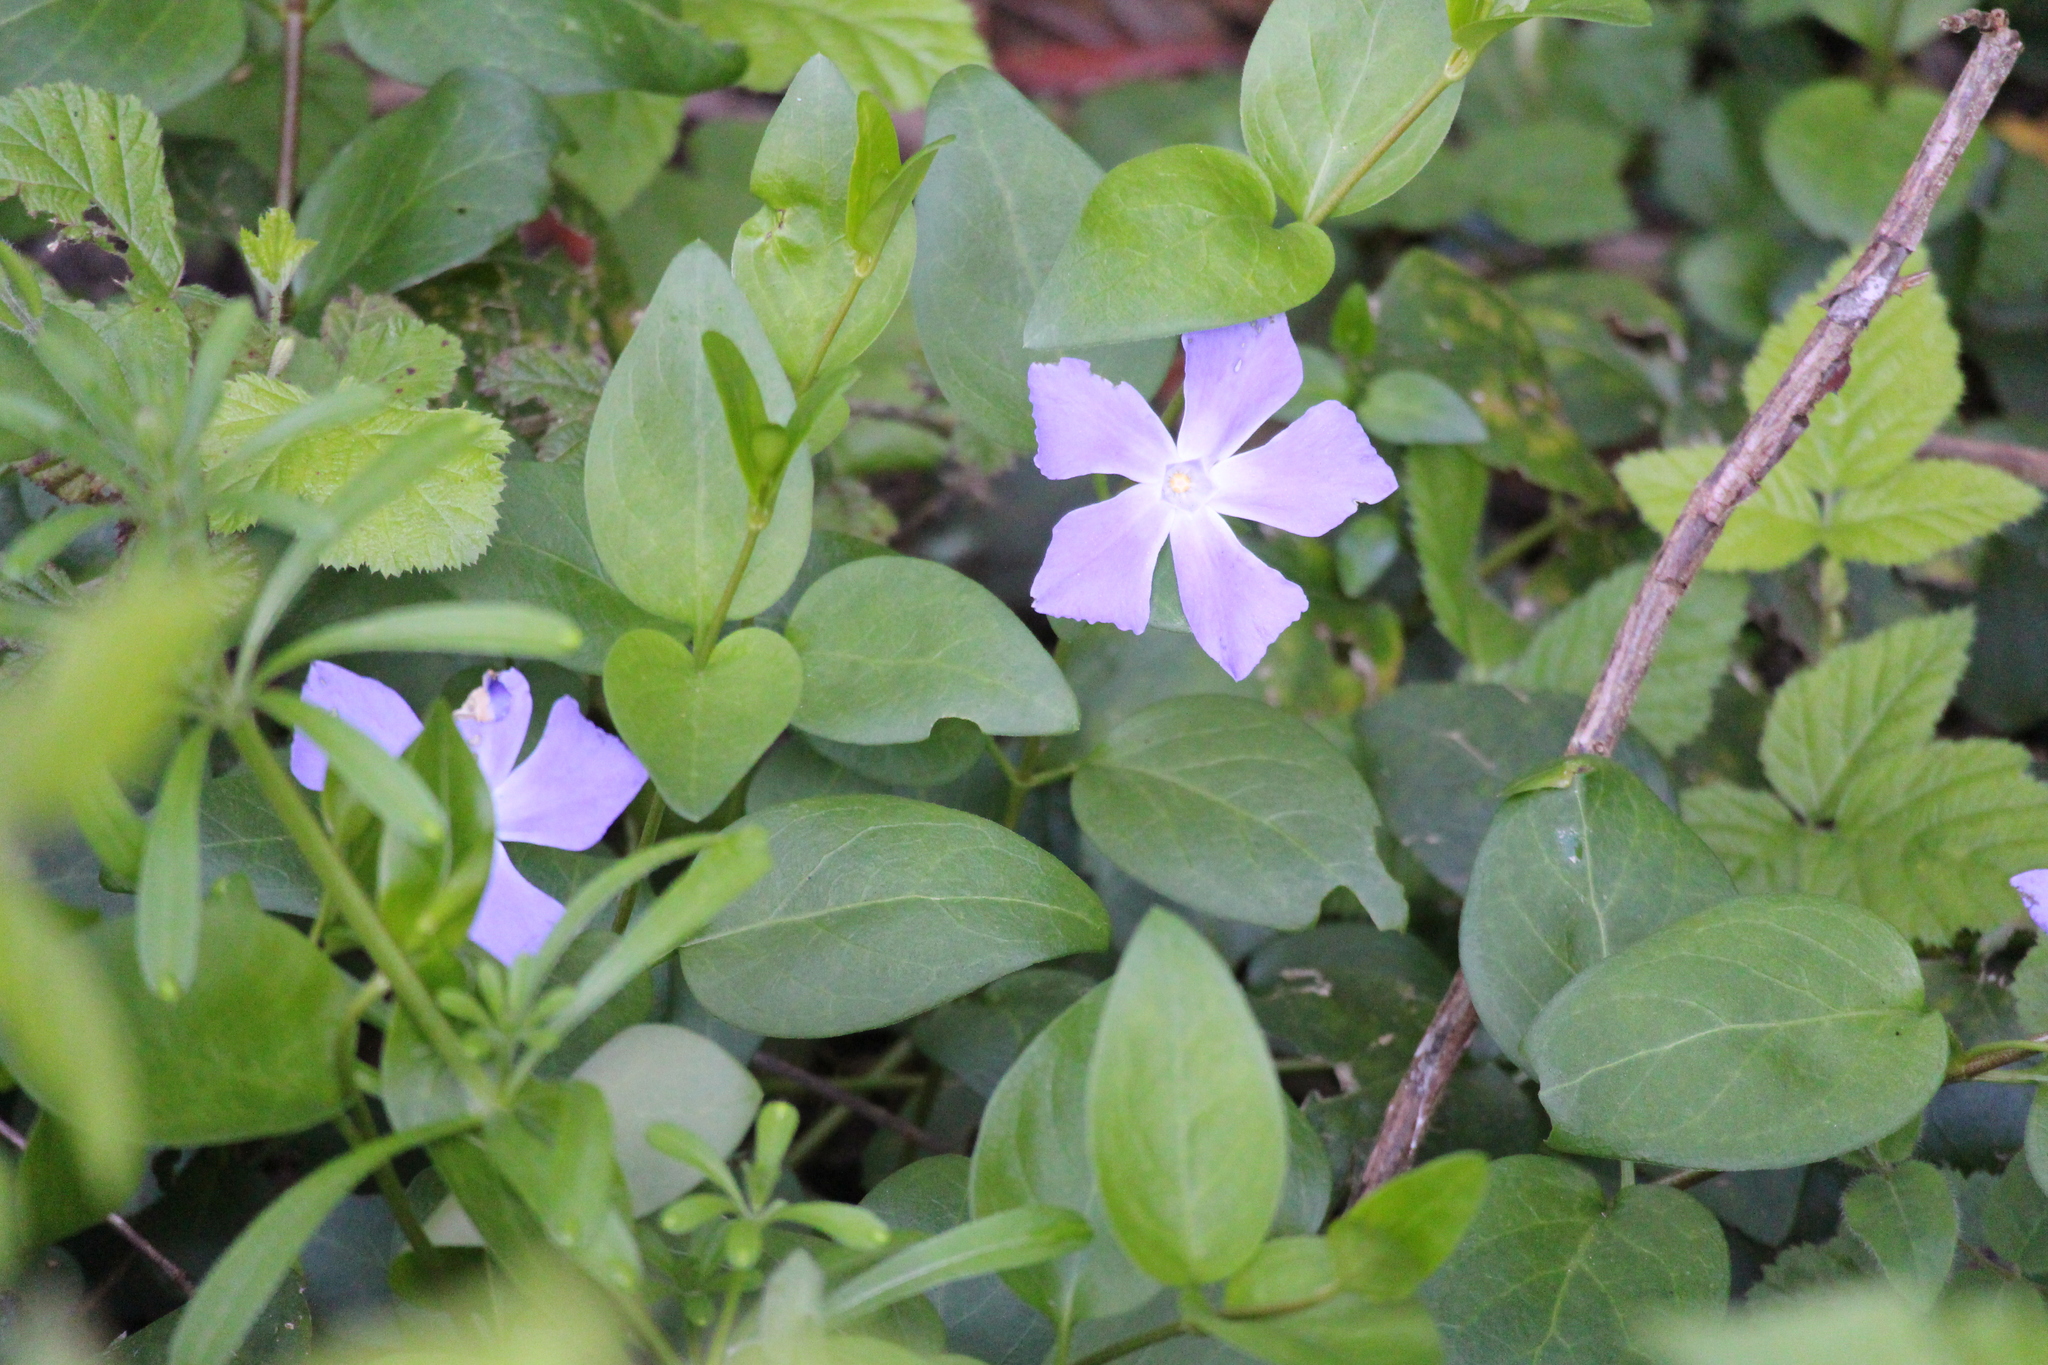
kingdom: Plantae
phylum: Tracheophyta
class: Magnoliopsida
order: Gentianales
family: Apocynaceae
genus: Vinca
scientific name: Vinca major
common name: Greater periwinkle
